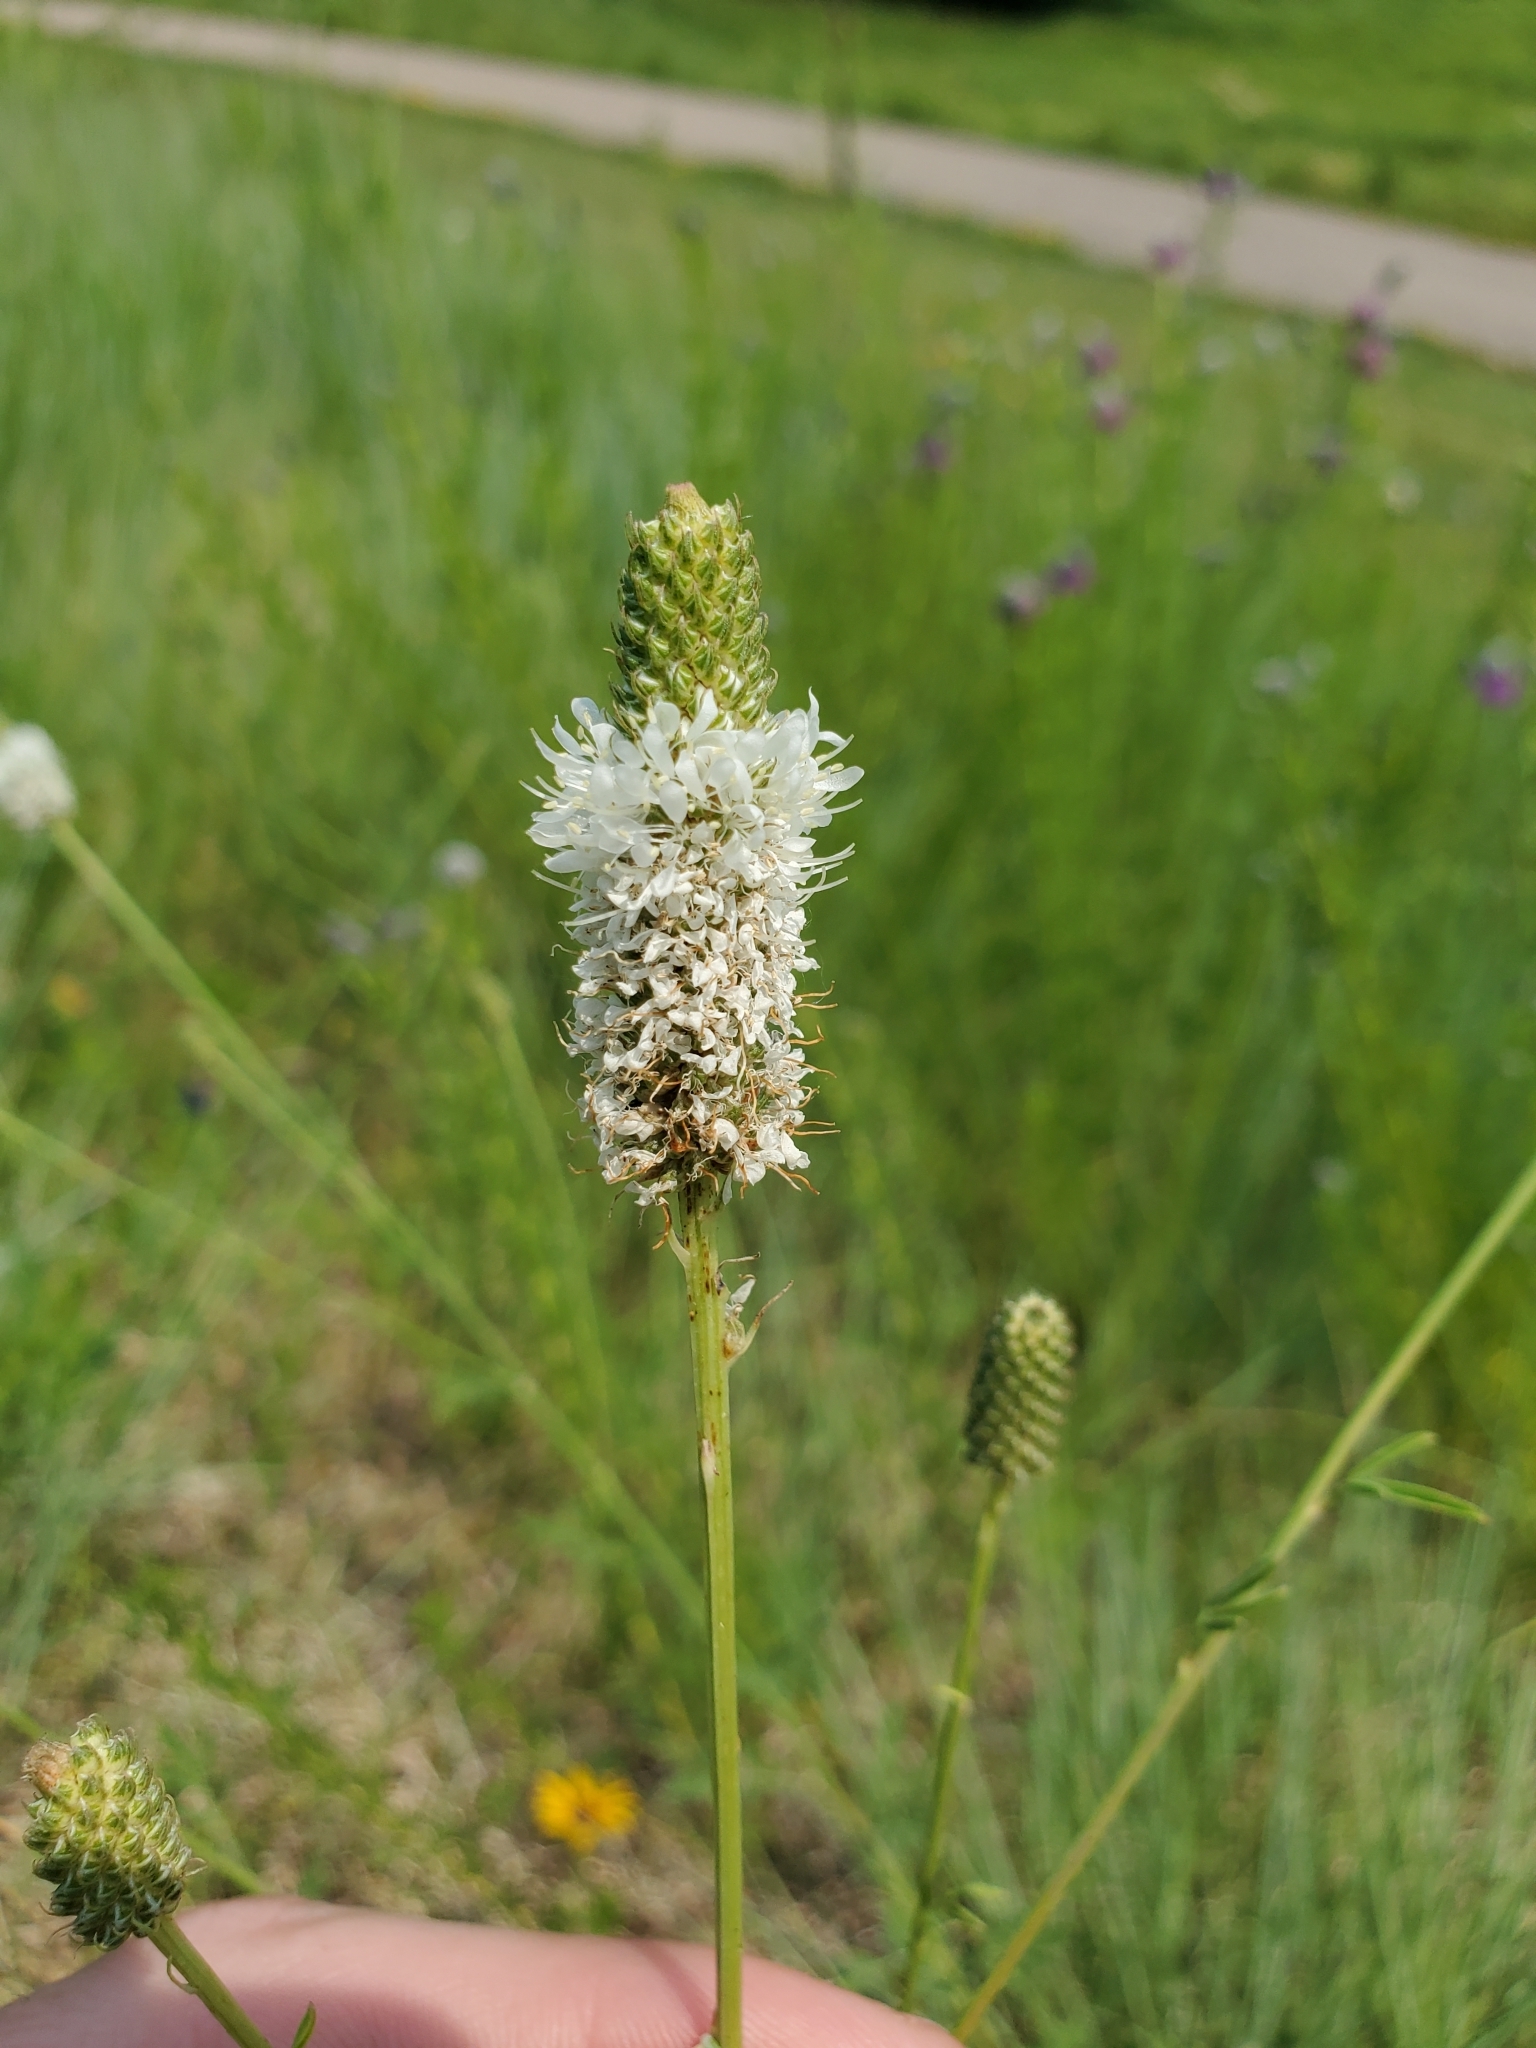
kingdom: Plantae
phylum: Tracheophyta
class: Magnoliopsida
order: Fabales
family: Fabaceae
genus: Dalea
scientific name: Dalea candida
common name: White prairie-clover
